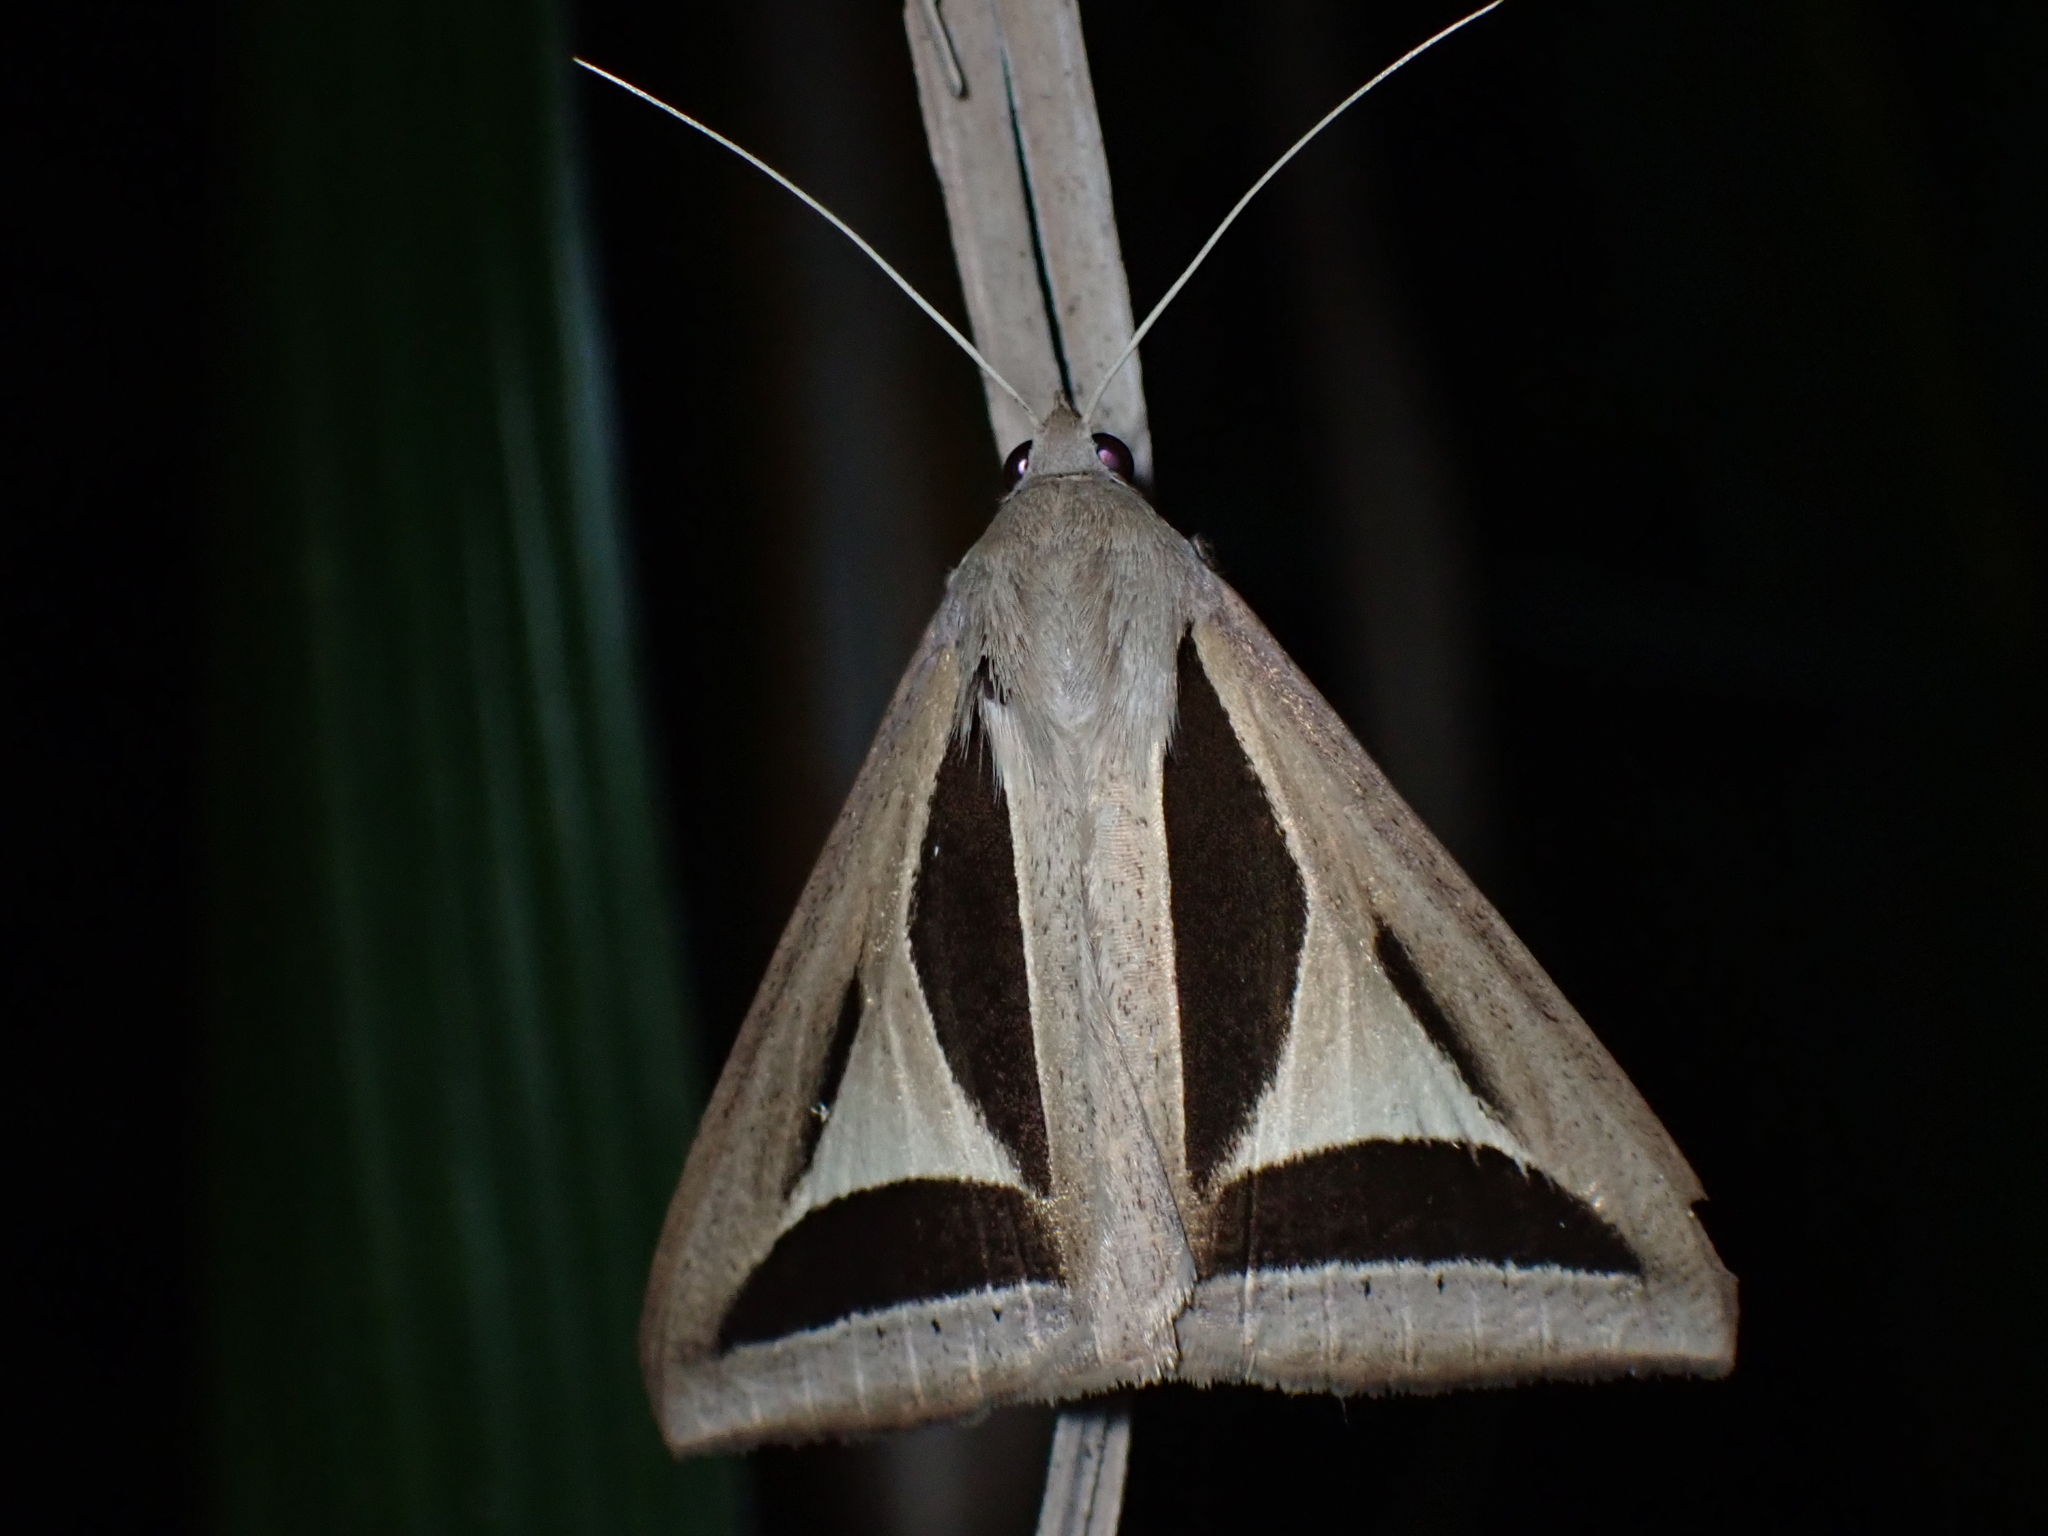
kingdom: Animalia
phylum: Arthropoda
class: Insecta
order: Lepidoptera
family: Erebidae
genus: Trigonodes
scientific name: Trigonodes cephise
